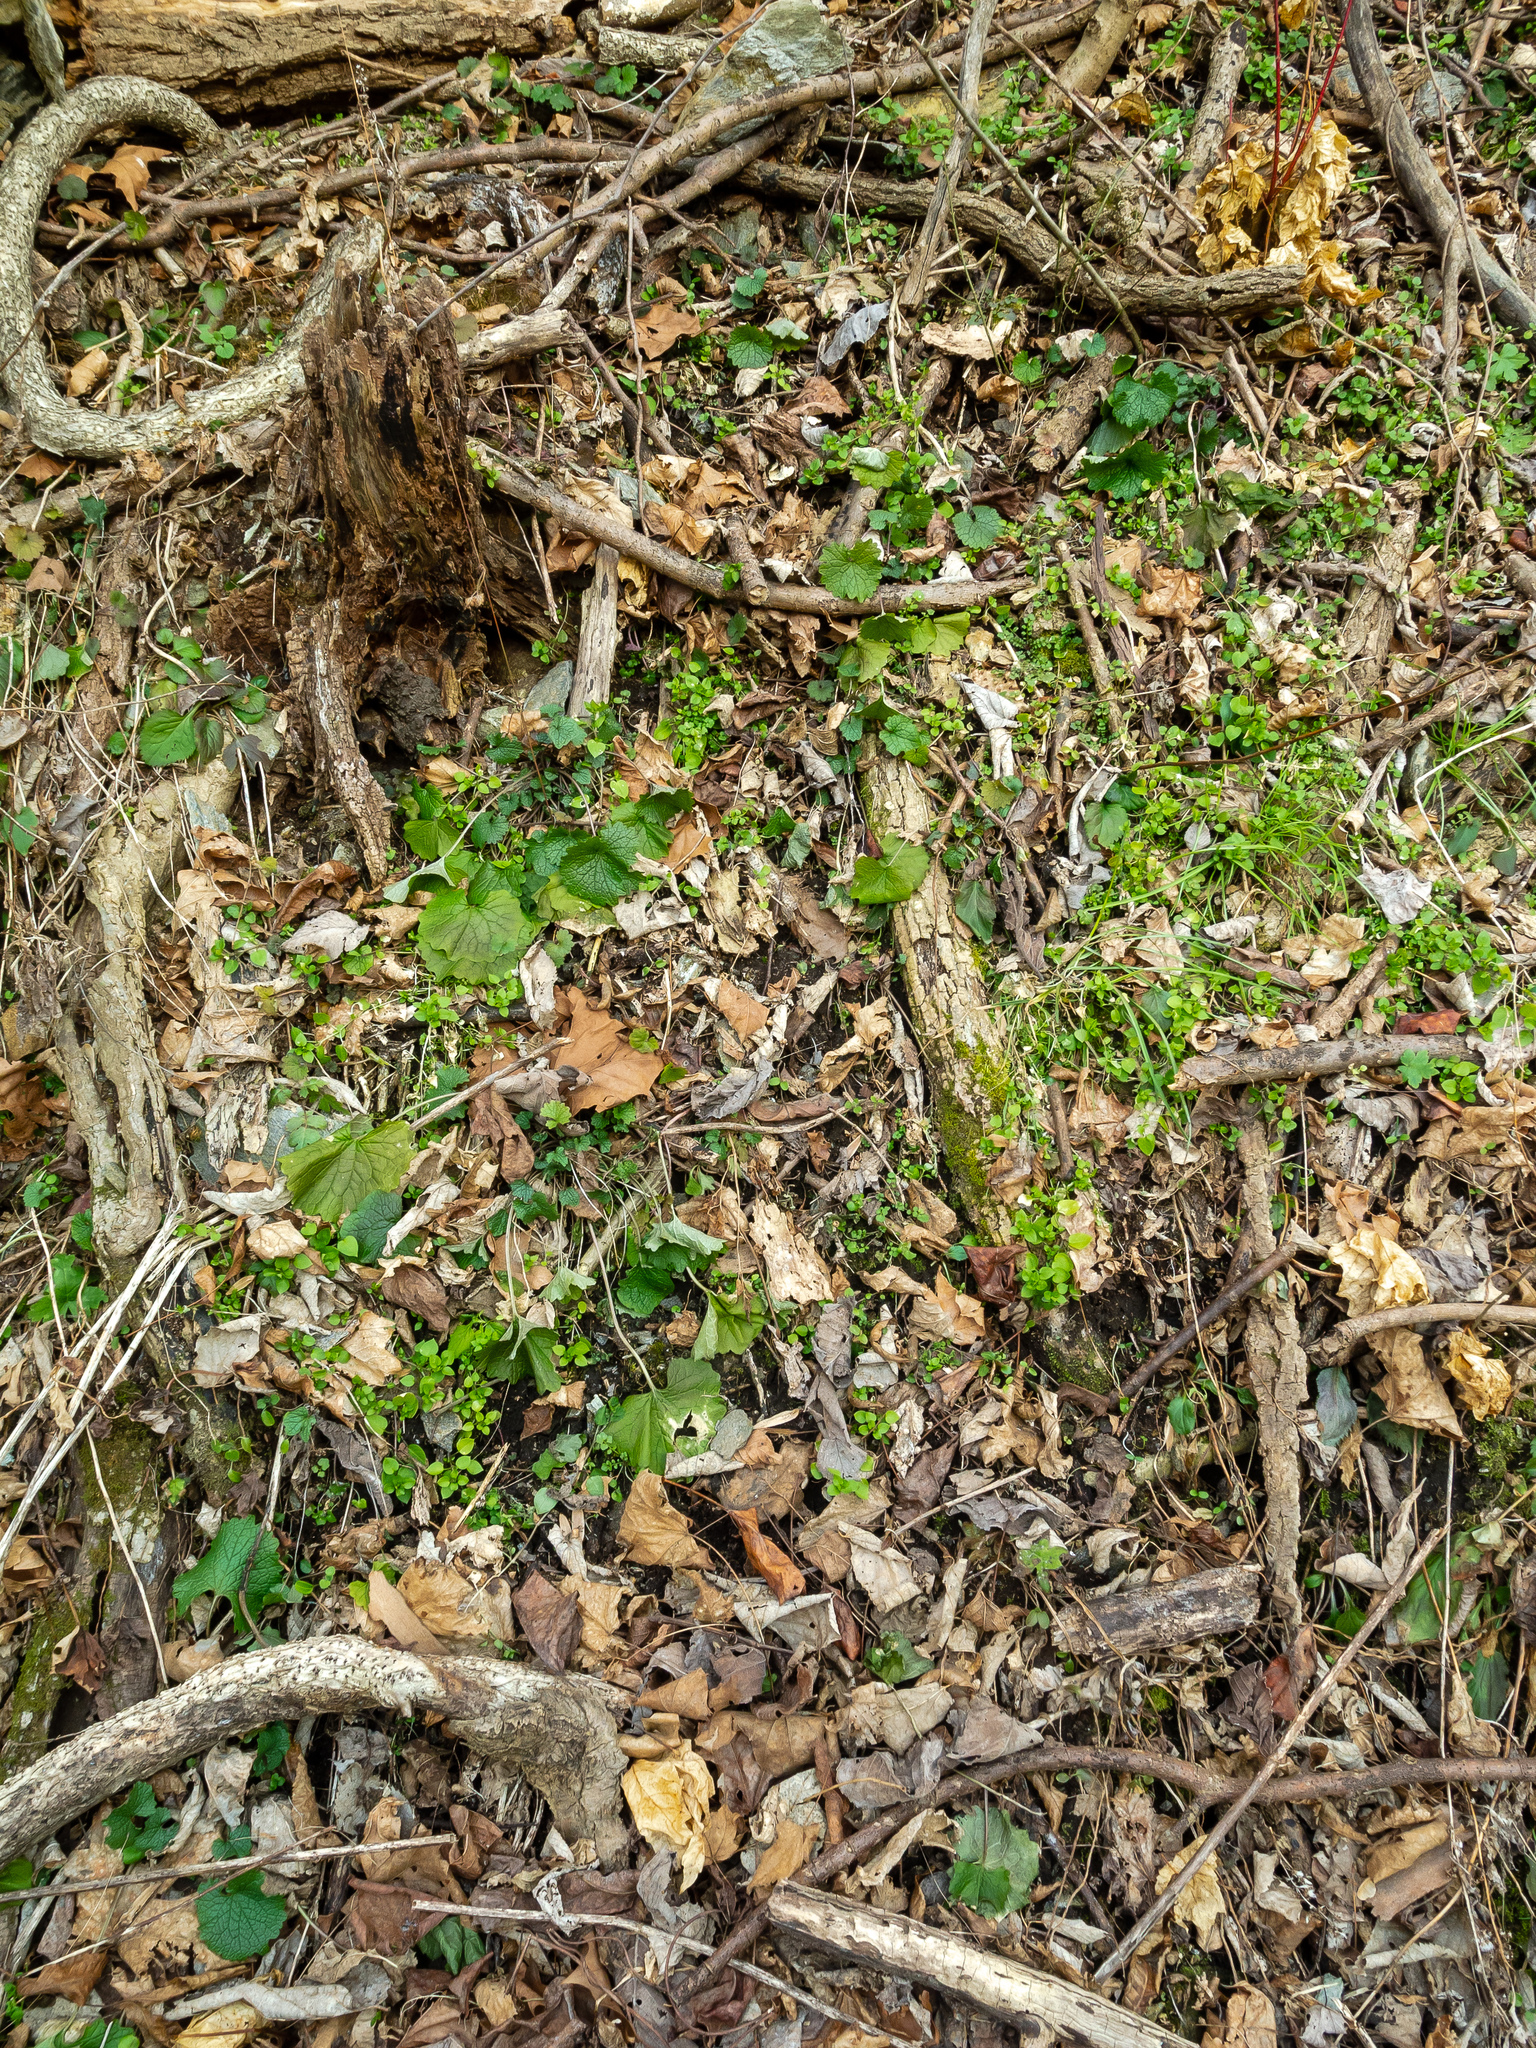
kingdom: Plantae
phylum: Tracheophyta
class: Magnoliopsida
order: Brassicales
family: Brassicaceae
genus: Alliaria
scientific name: Alliaria petiolata
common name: Garlic mustard
